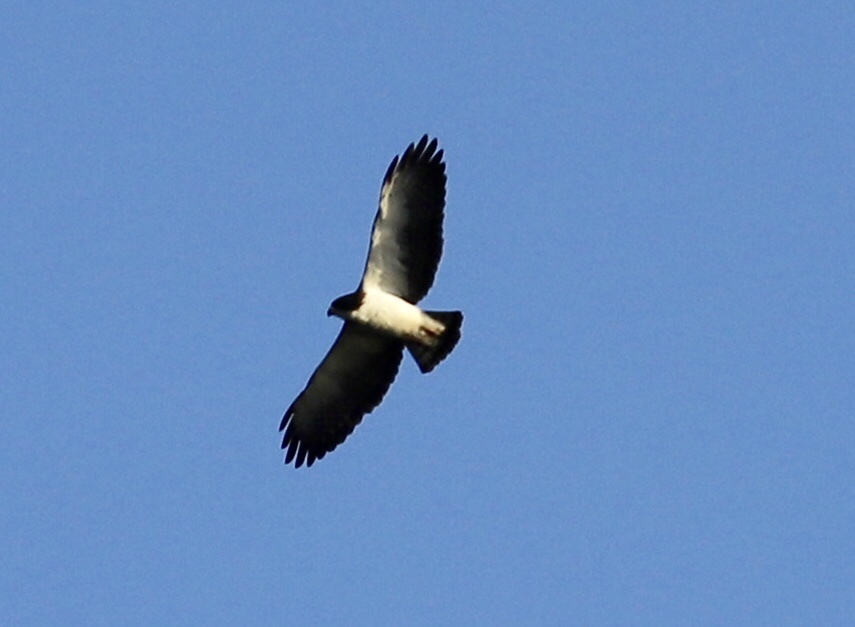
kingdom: Animalia
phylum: Chordata
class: Aves
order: Accipitriformes
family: Accipitridae
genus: Buteo
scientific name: Buteo brachyurus
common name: Short-tailed hawk
